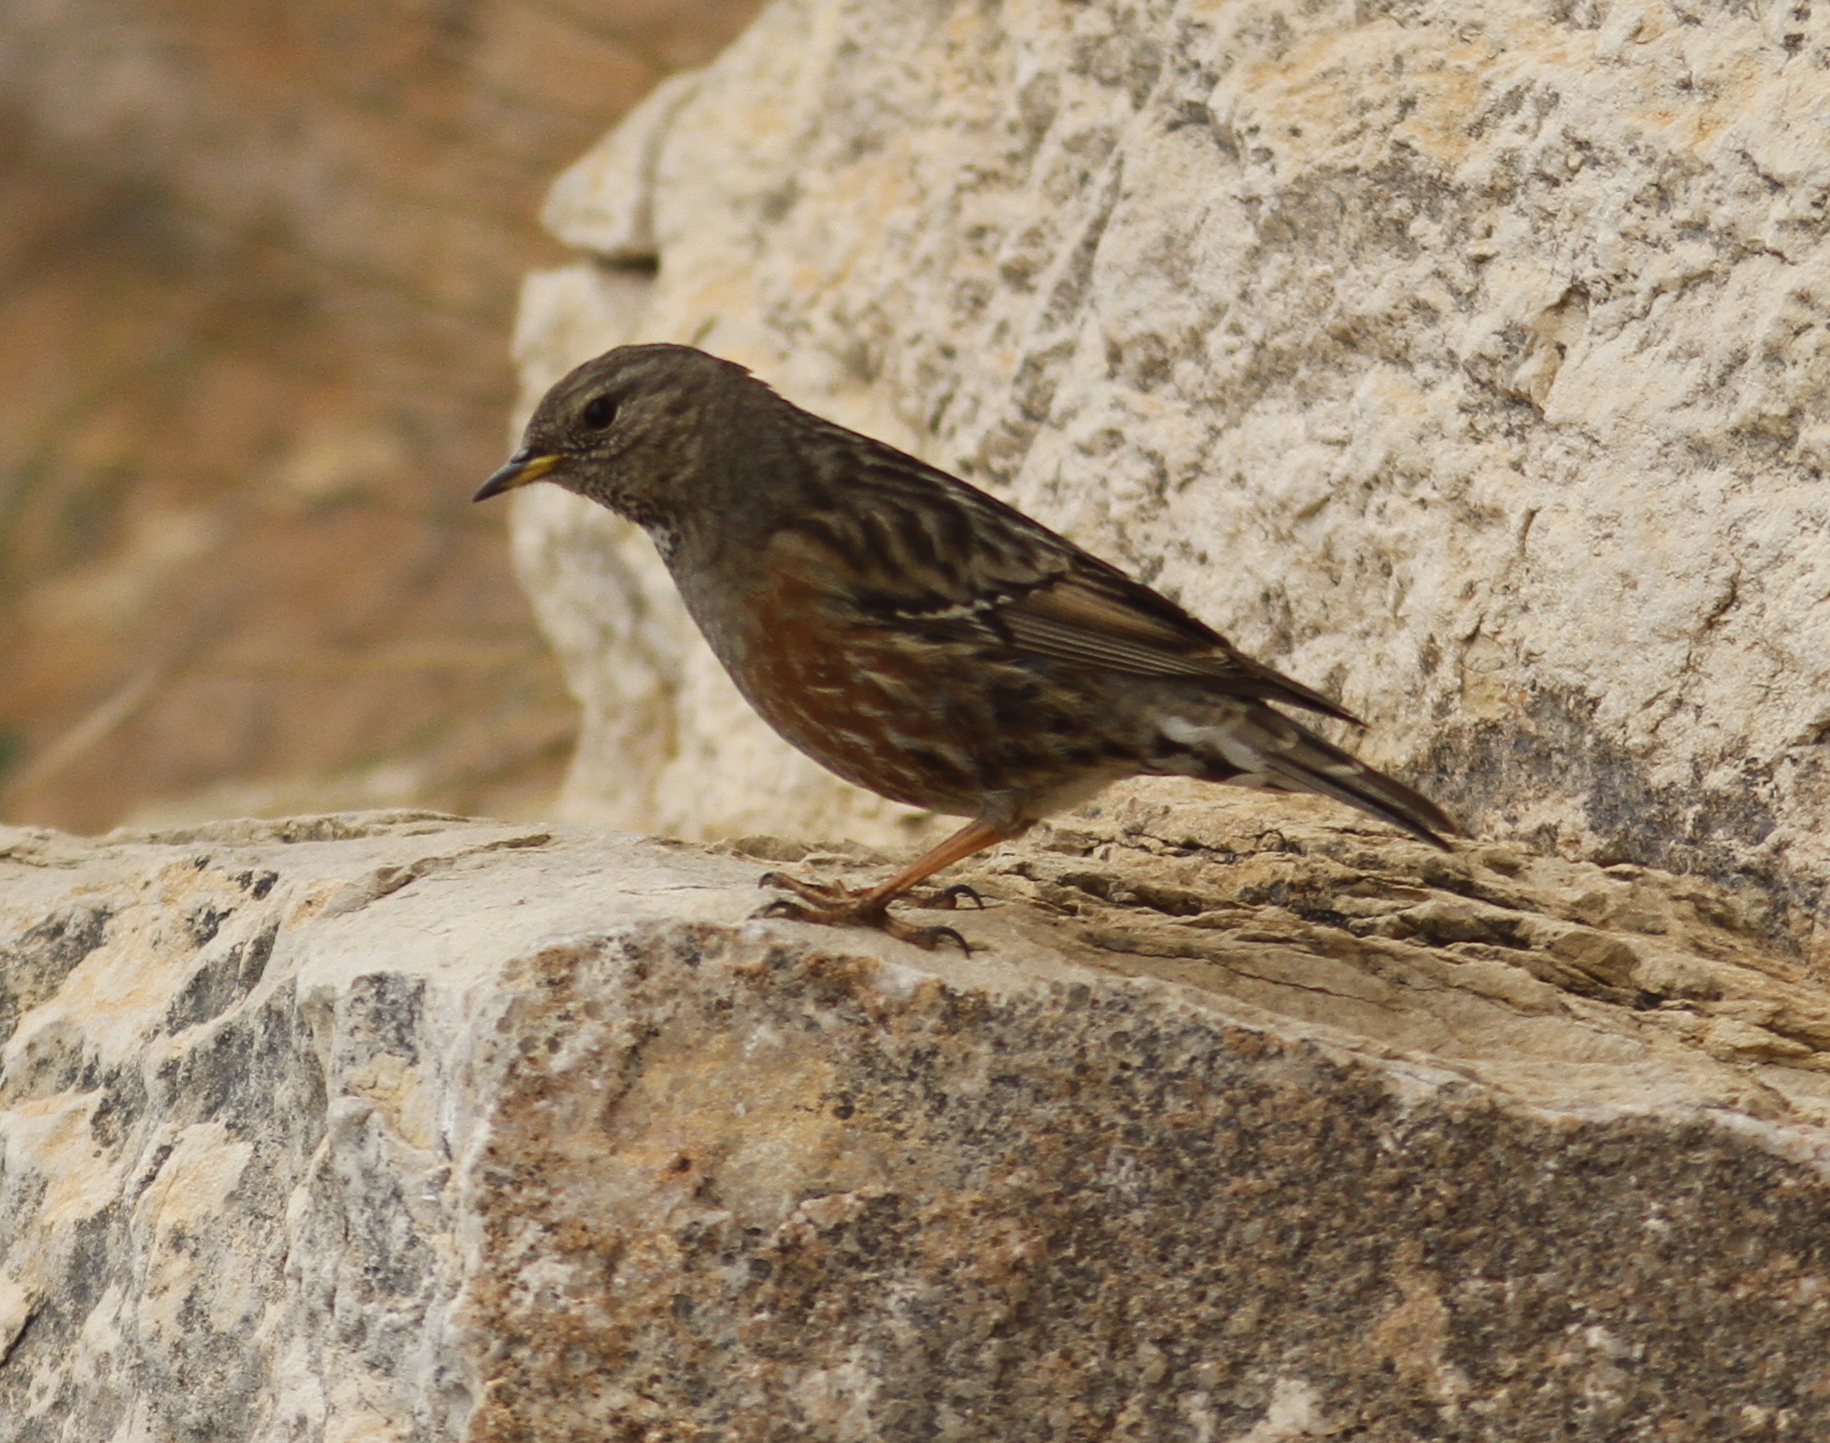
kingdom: Animalia
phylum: Chordata
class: Aves
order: Passeriformes
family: Prunellidae
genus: Prunella
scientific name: Prunella collaris
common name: Alpine accentor
